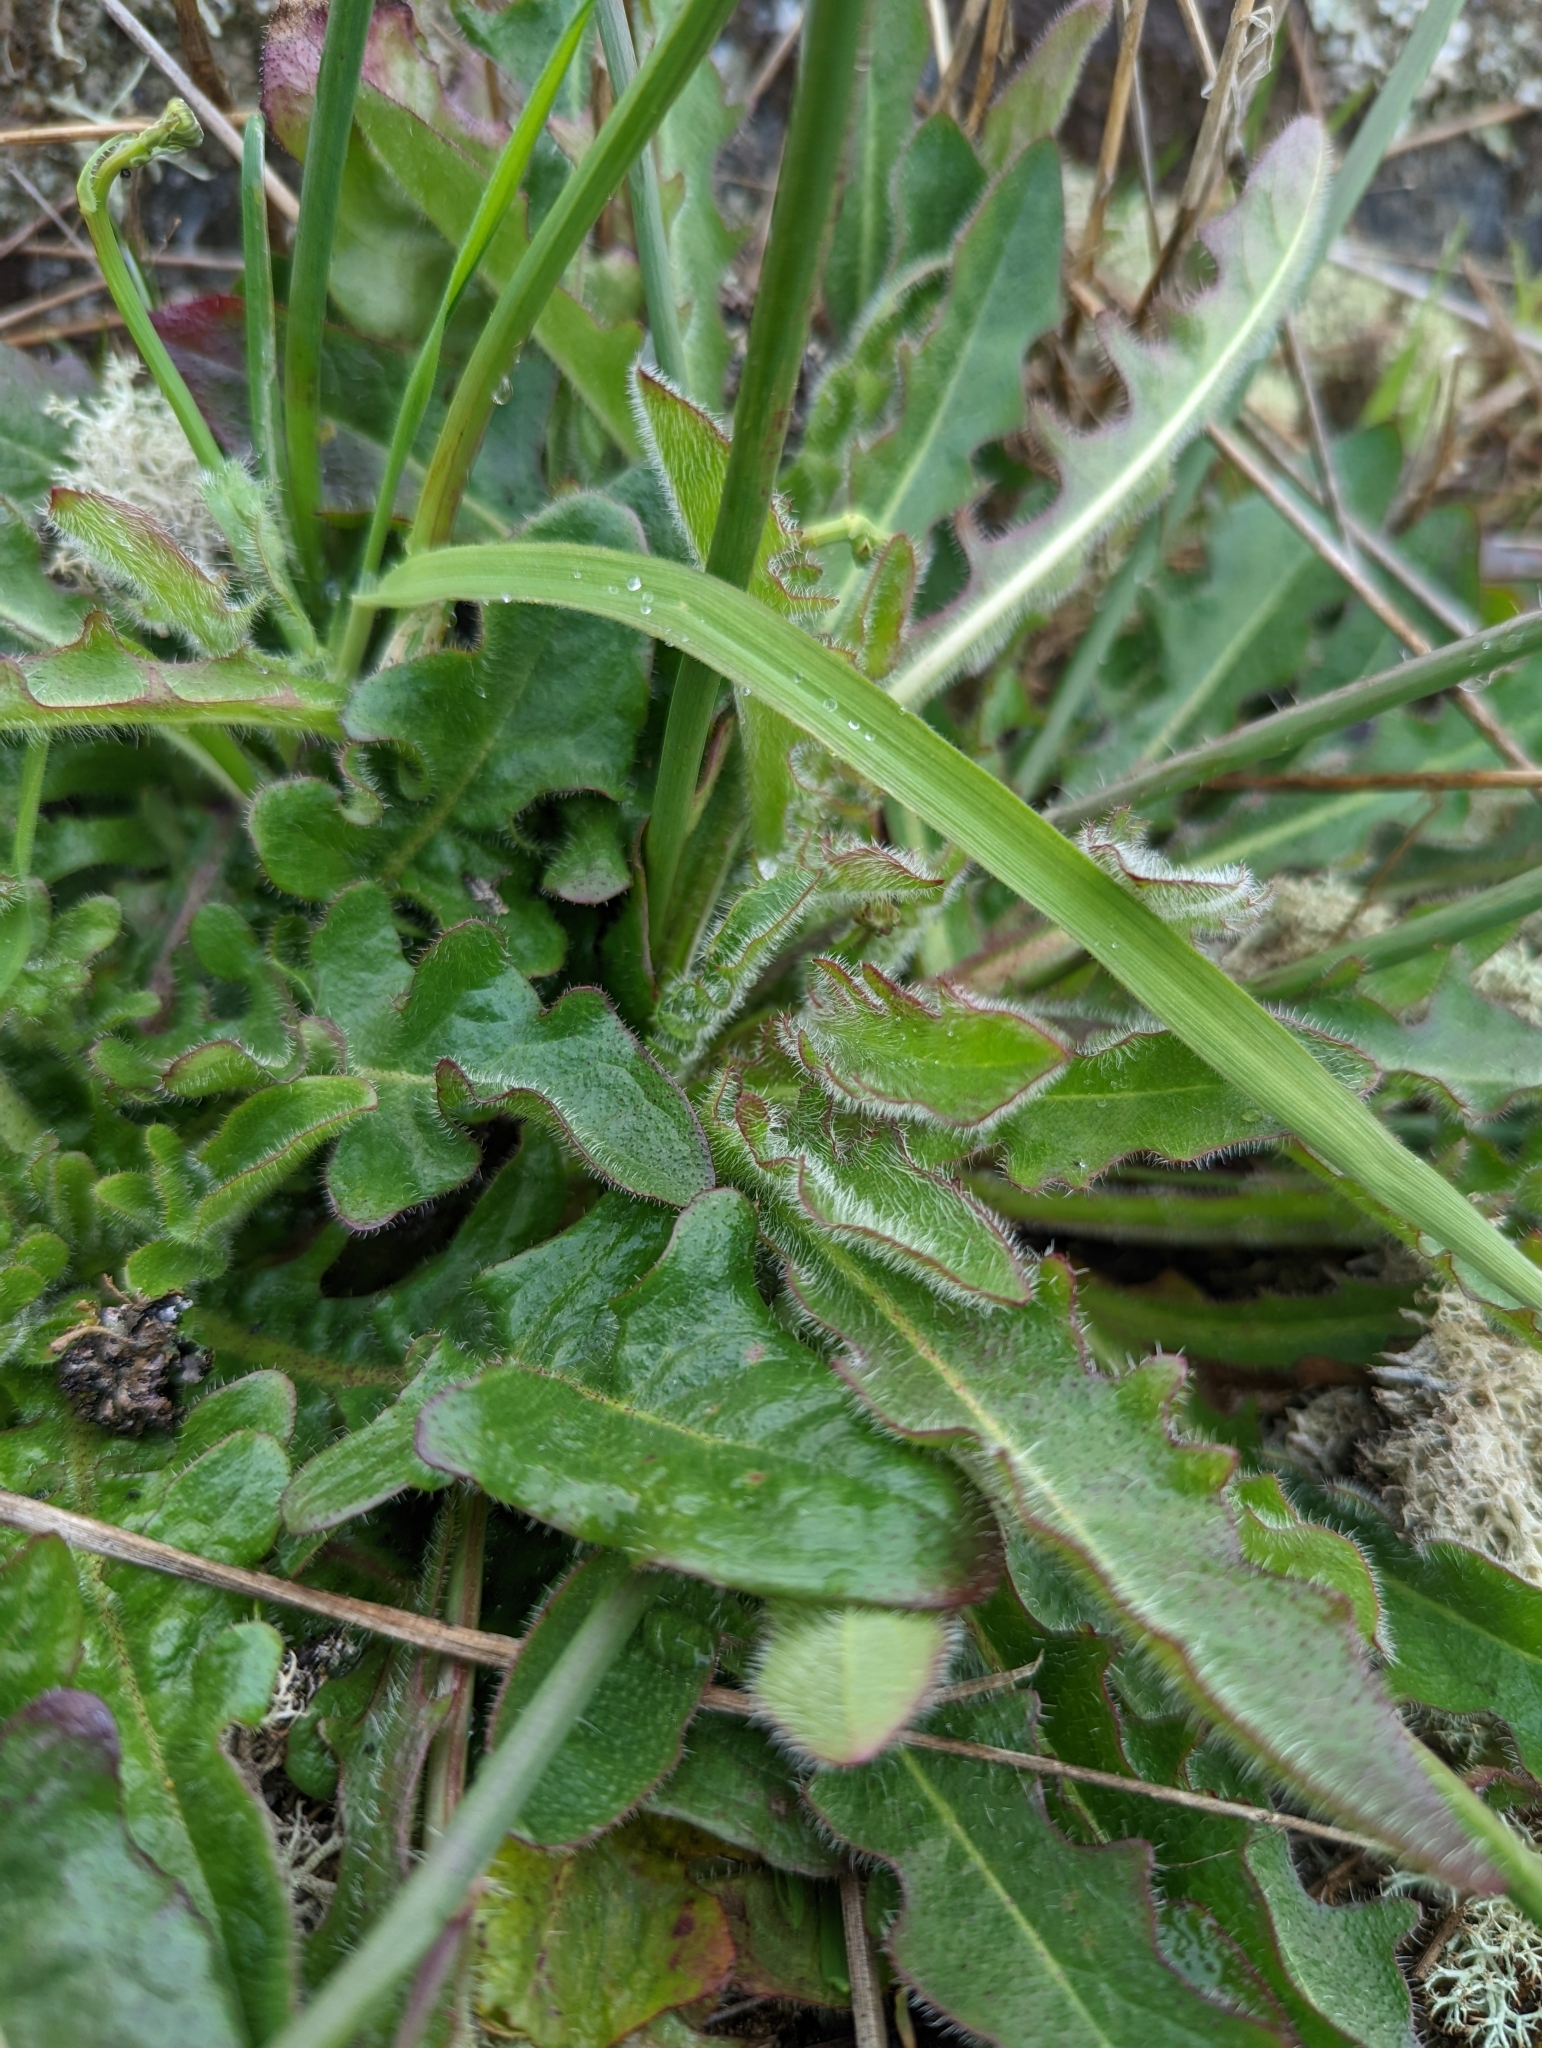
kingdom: Plantae
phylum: Tracheophyta
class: Magnoliopsida
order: Asterales
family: Asteraceae
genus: Hypochaeris
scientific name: Hypochaeris radicata
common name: Flatweed
